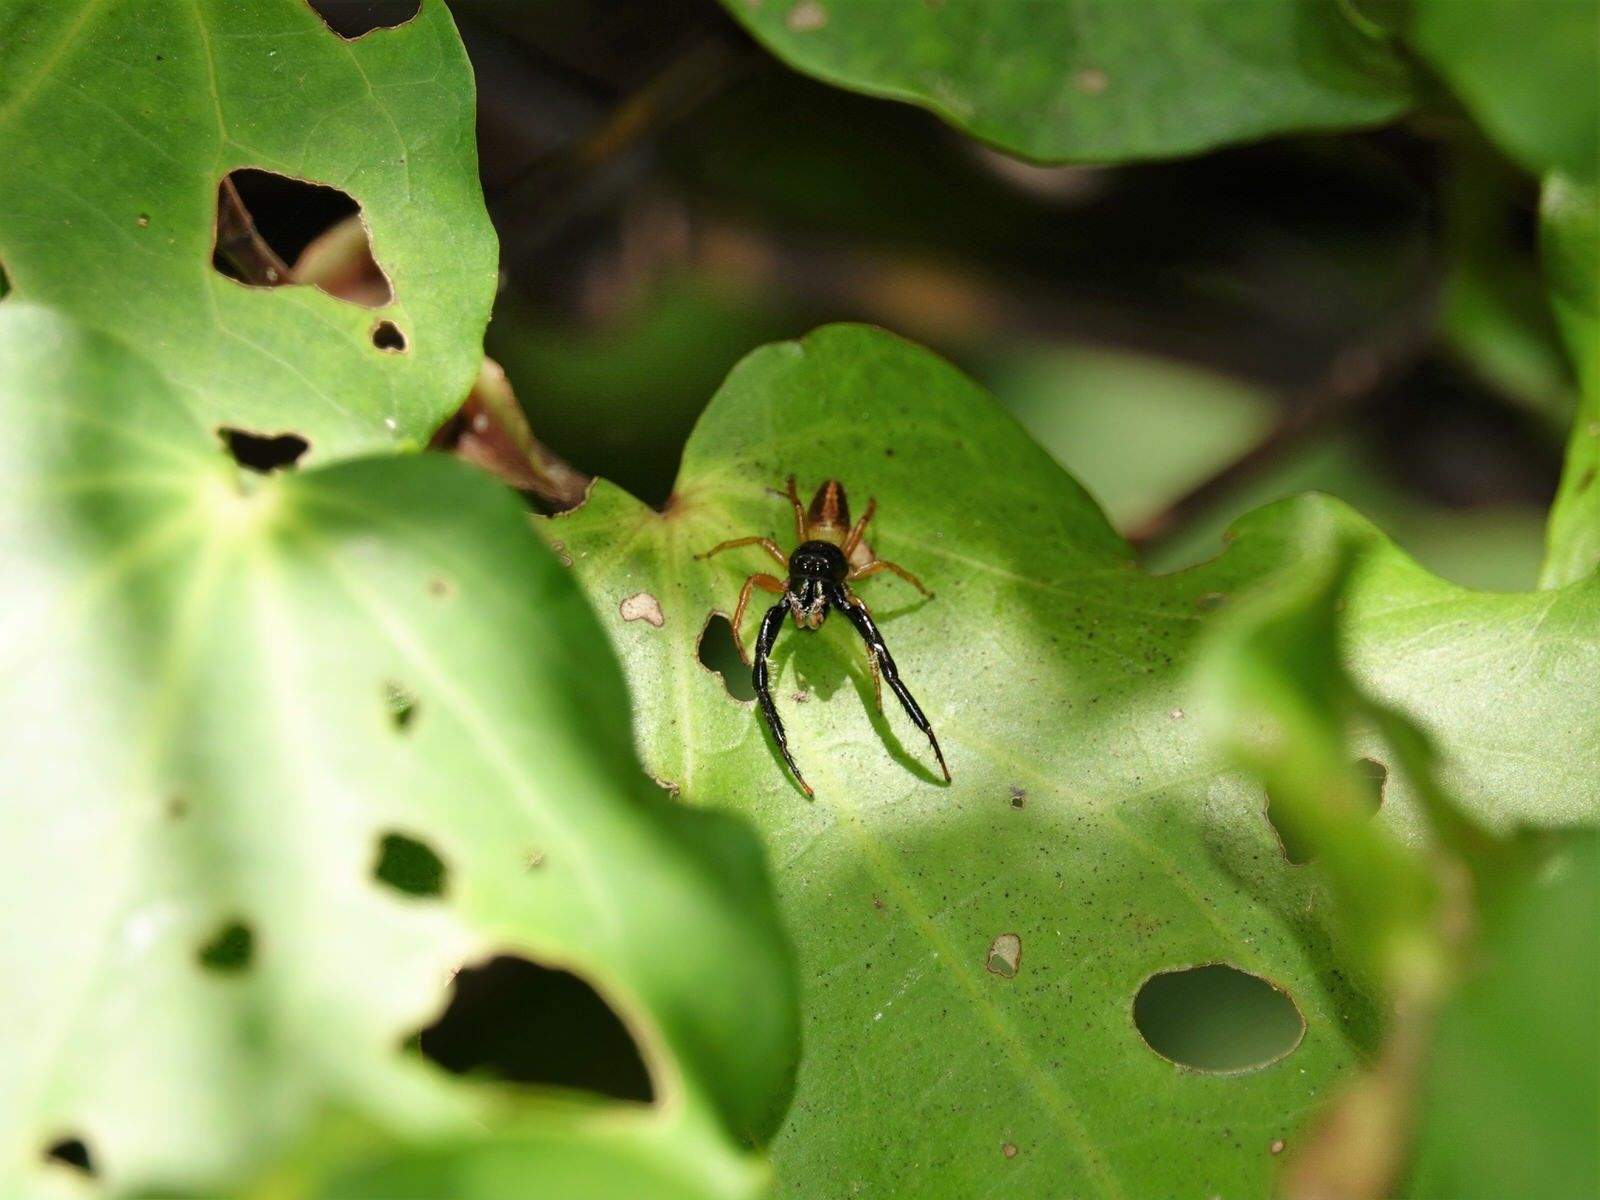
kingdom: Animalia
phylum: Arthropoda
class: Arachnida
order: Araneae
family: Salticidae
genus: Trite
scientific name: Trite planiceps
